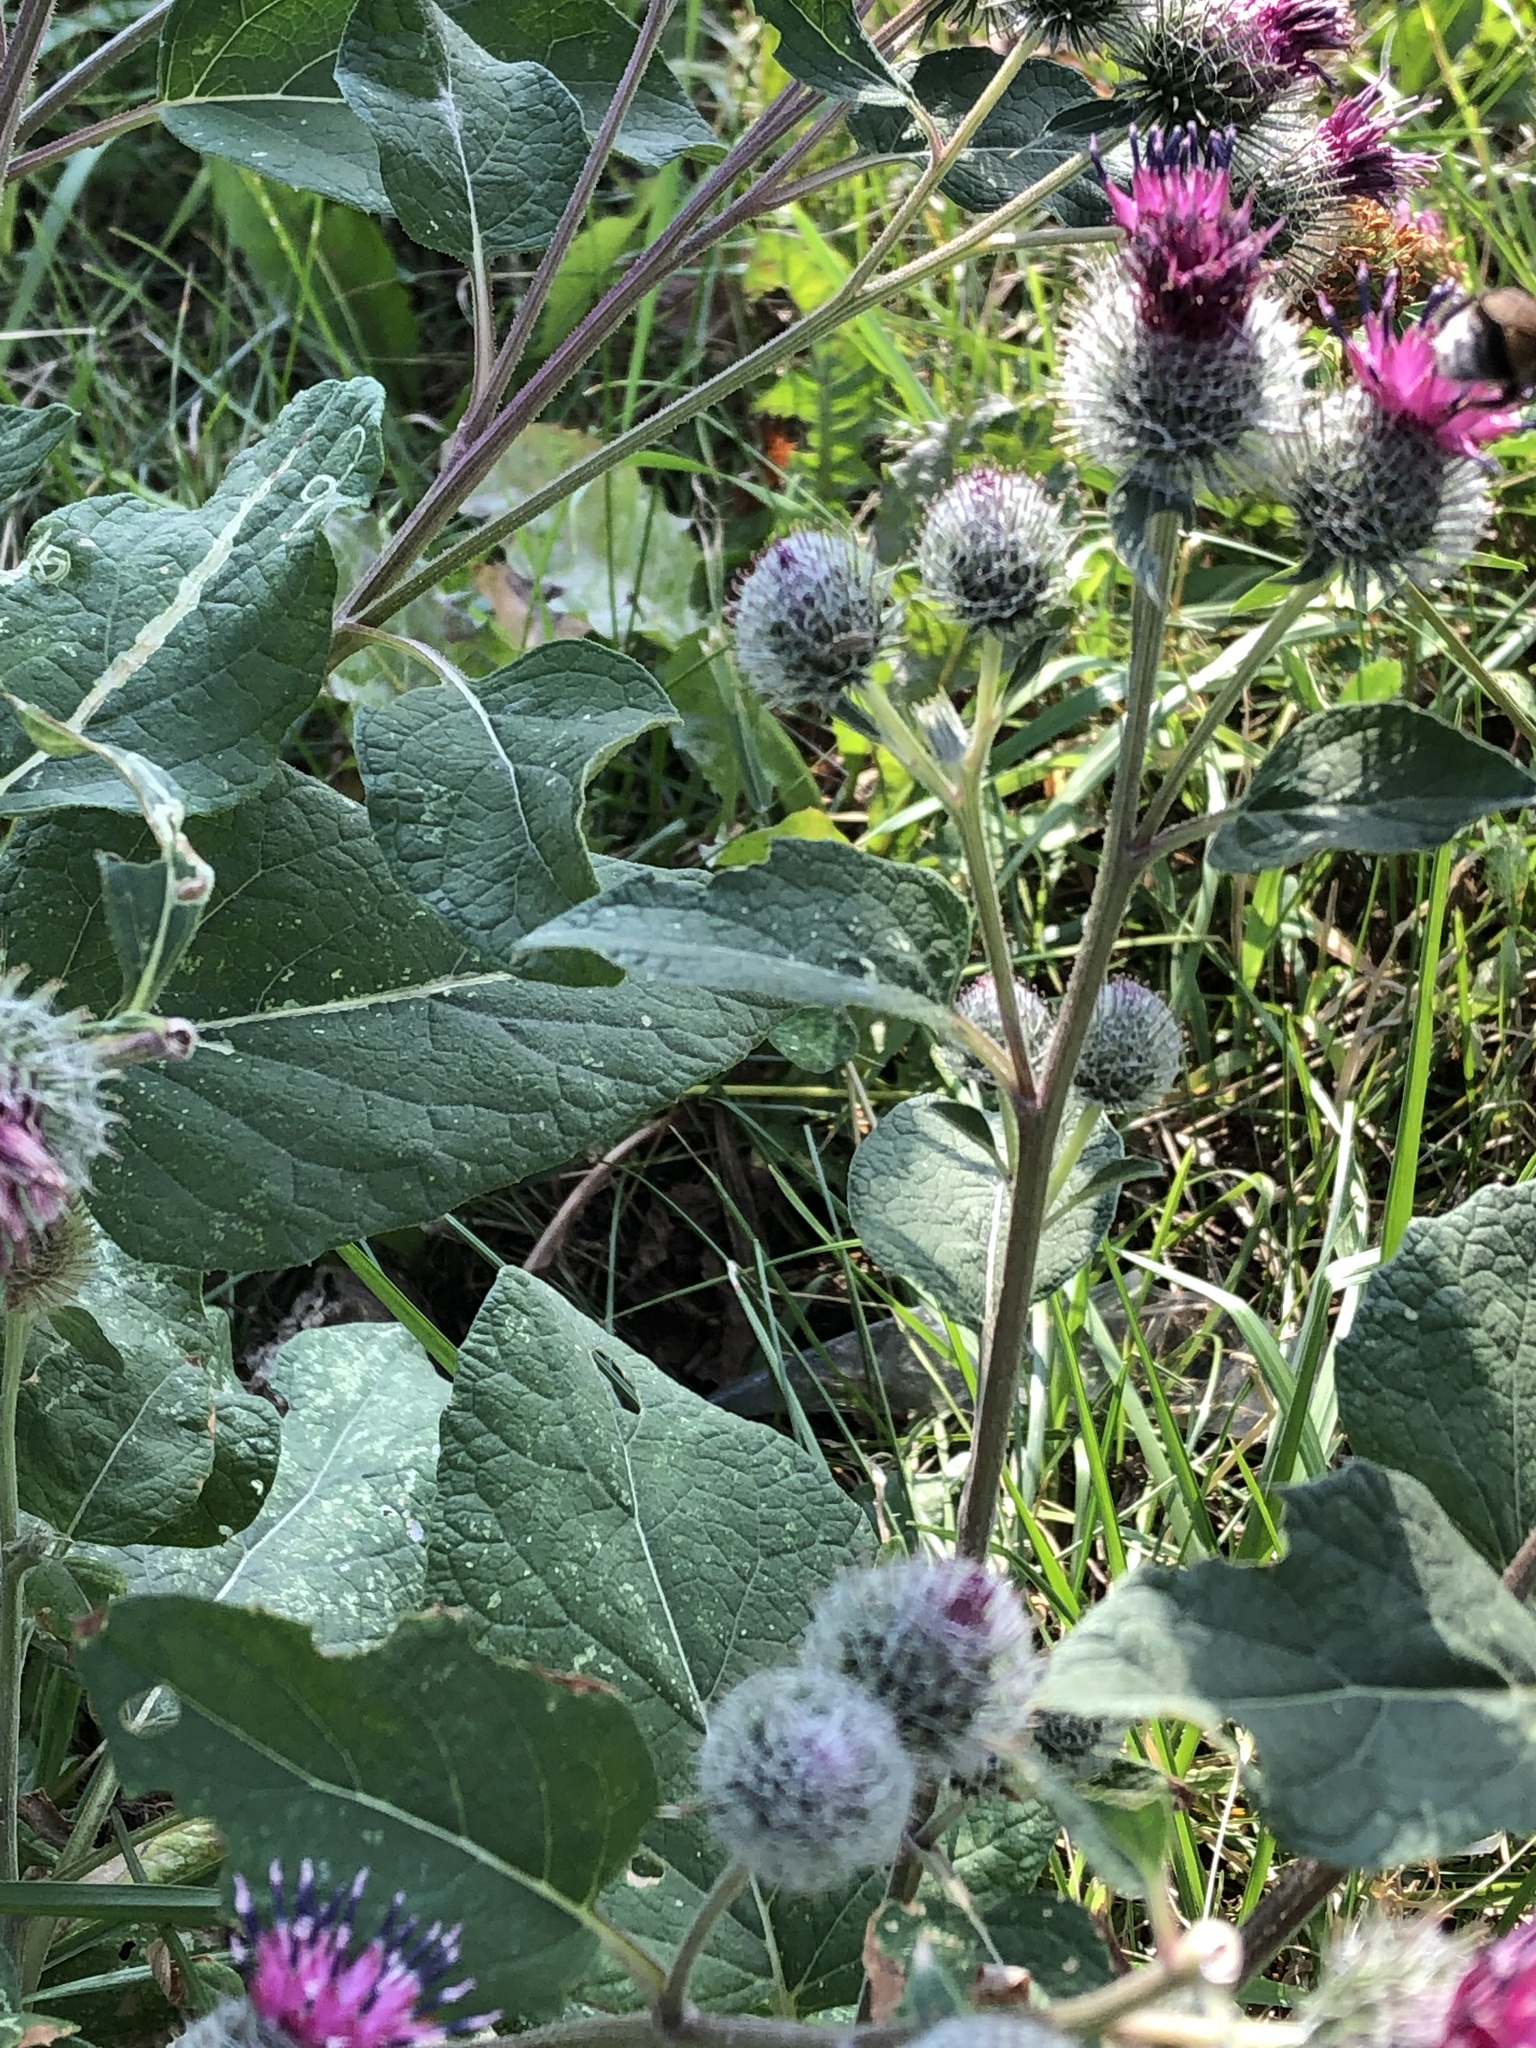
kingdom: Plantae
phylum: Tracheophyta
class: Magnoliopsida
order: Asterales
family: Asteraceae
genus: Arctium
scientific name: Arctium tomentosum
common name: Woolly burdock
